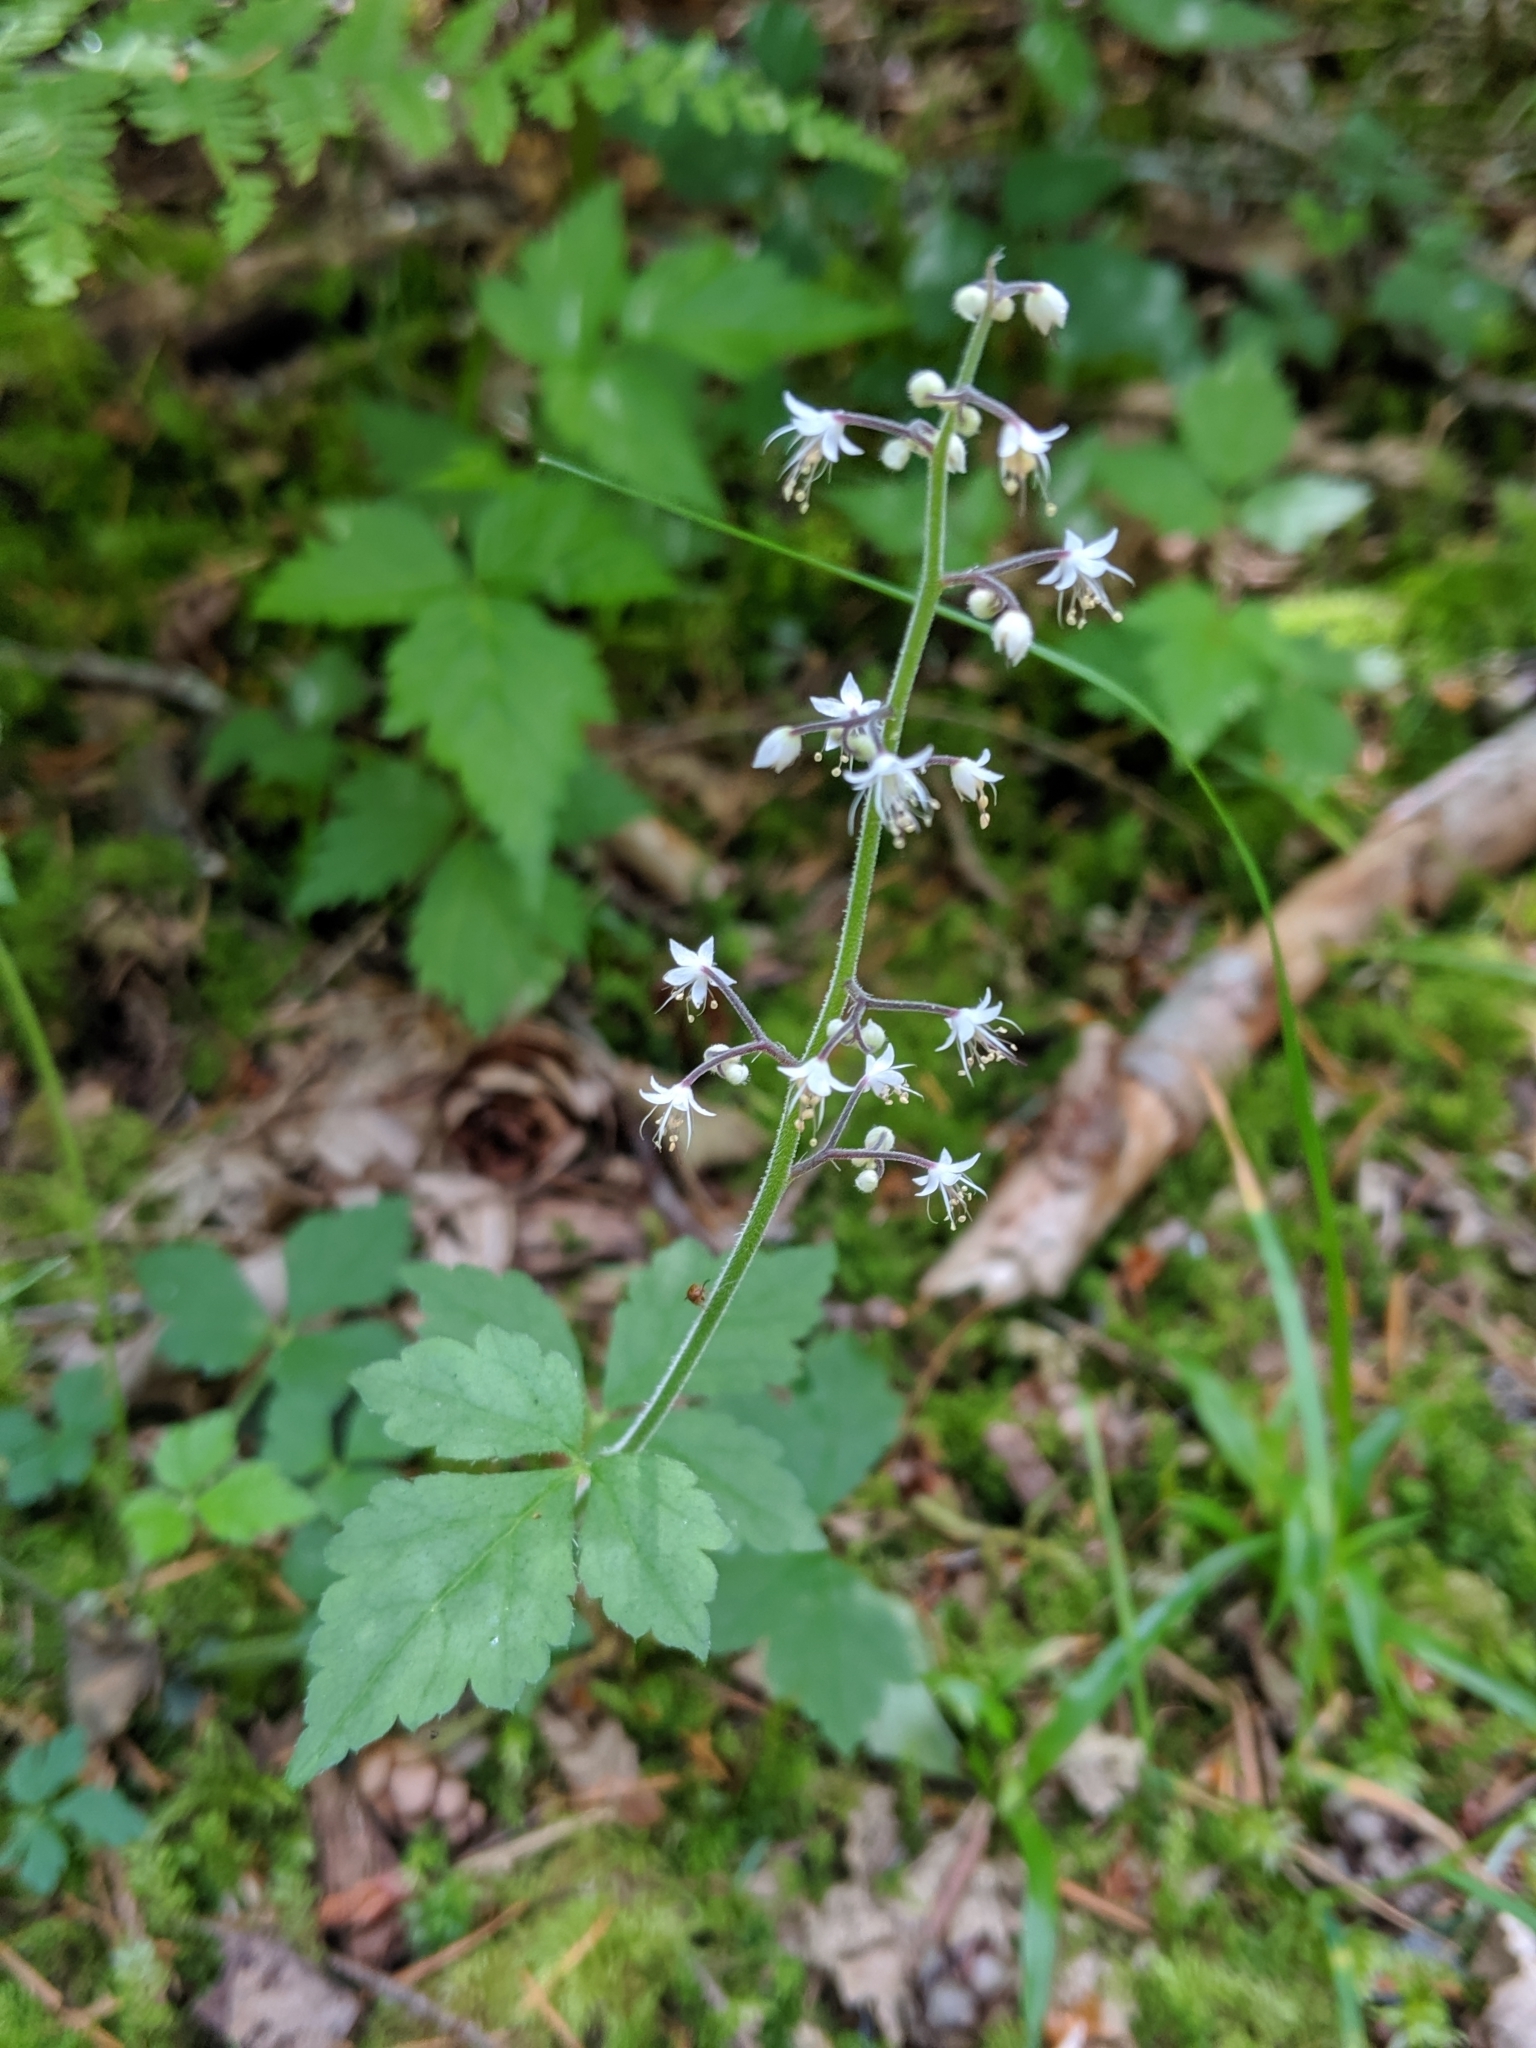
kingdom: Plantae
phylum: Tracheophyta
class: Magnoliopsida
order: Saxifragales
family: Saxifragaceae
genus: Tiarella
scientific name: Tiarella trifoliata
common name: Sugar-scoop
